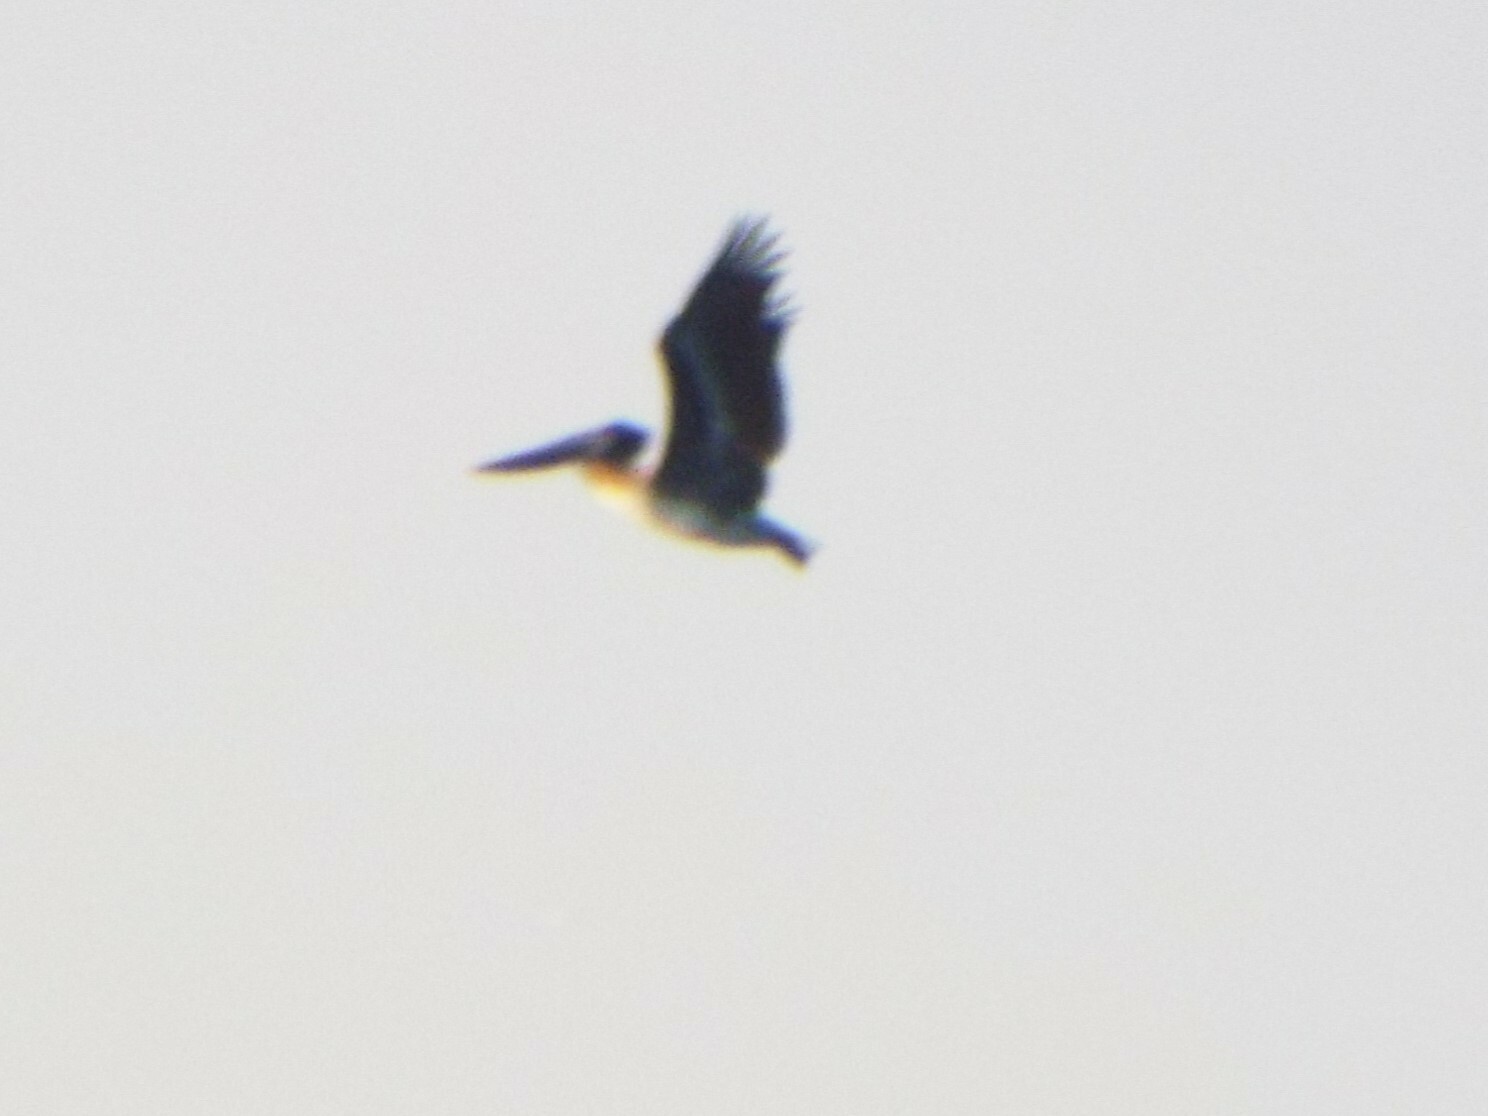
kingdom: Animalia
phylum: Chordata
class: Aves
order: Pelecaniformes
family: Pelecanidae
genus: Pelecanus
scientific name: Pelecanus occidentalis
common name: Brown pelican
